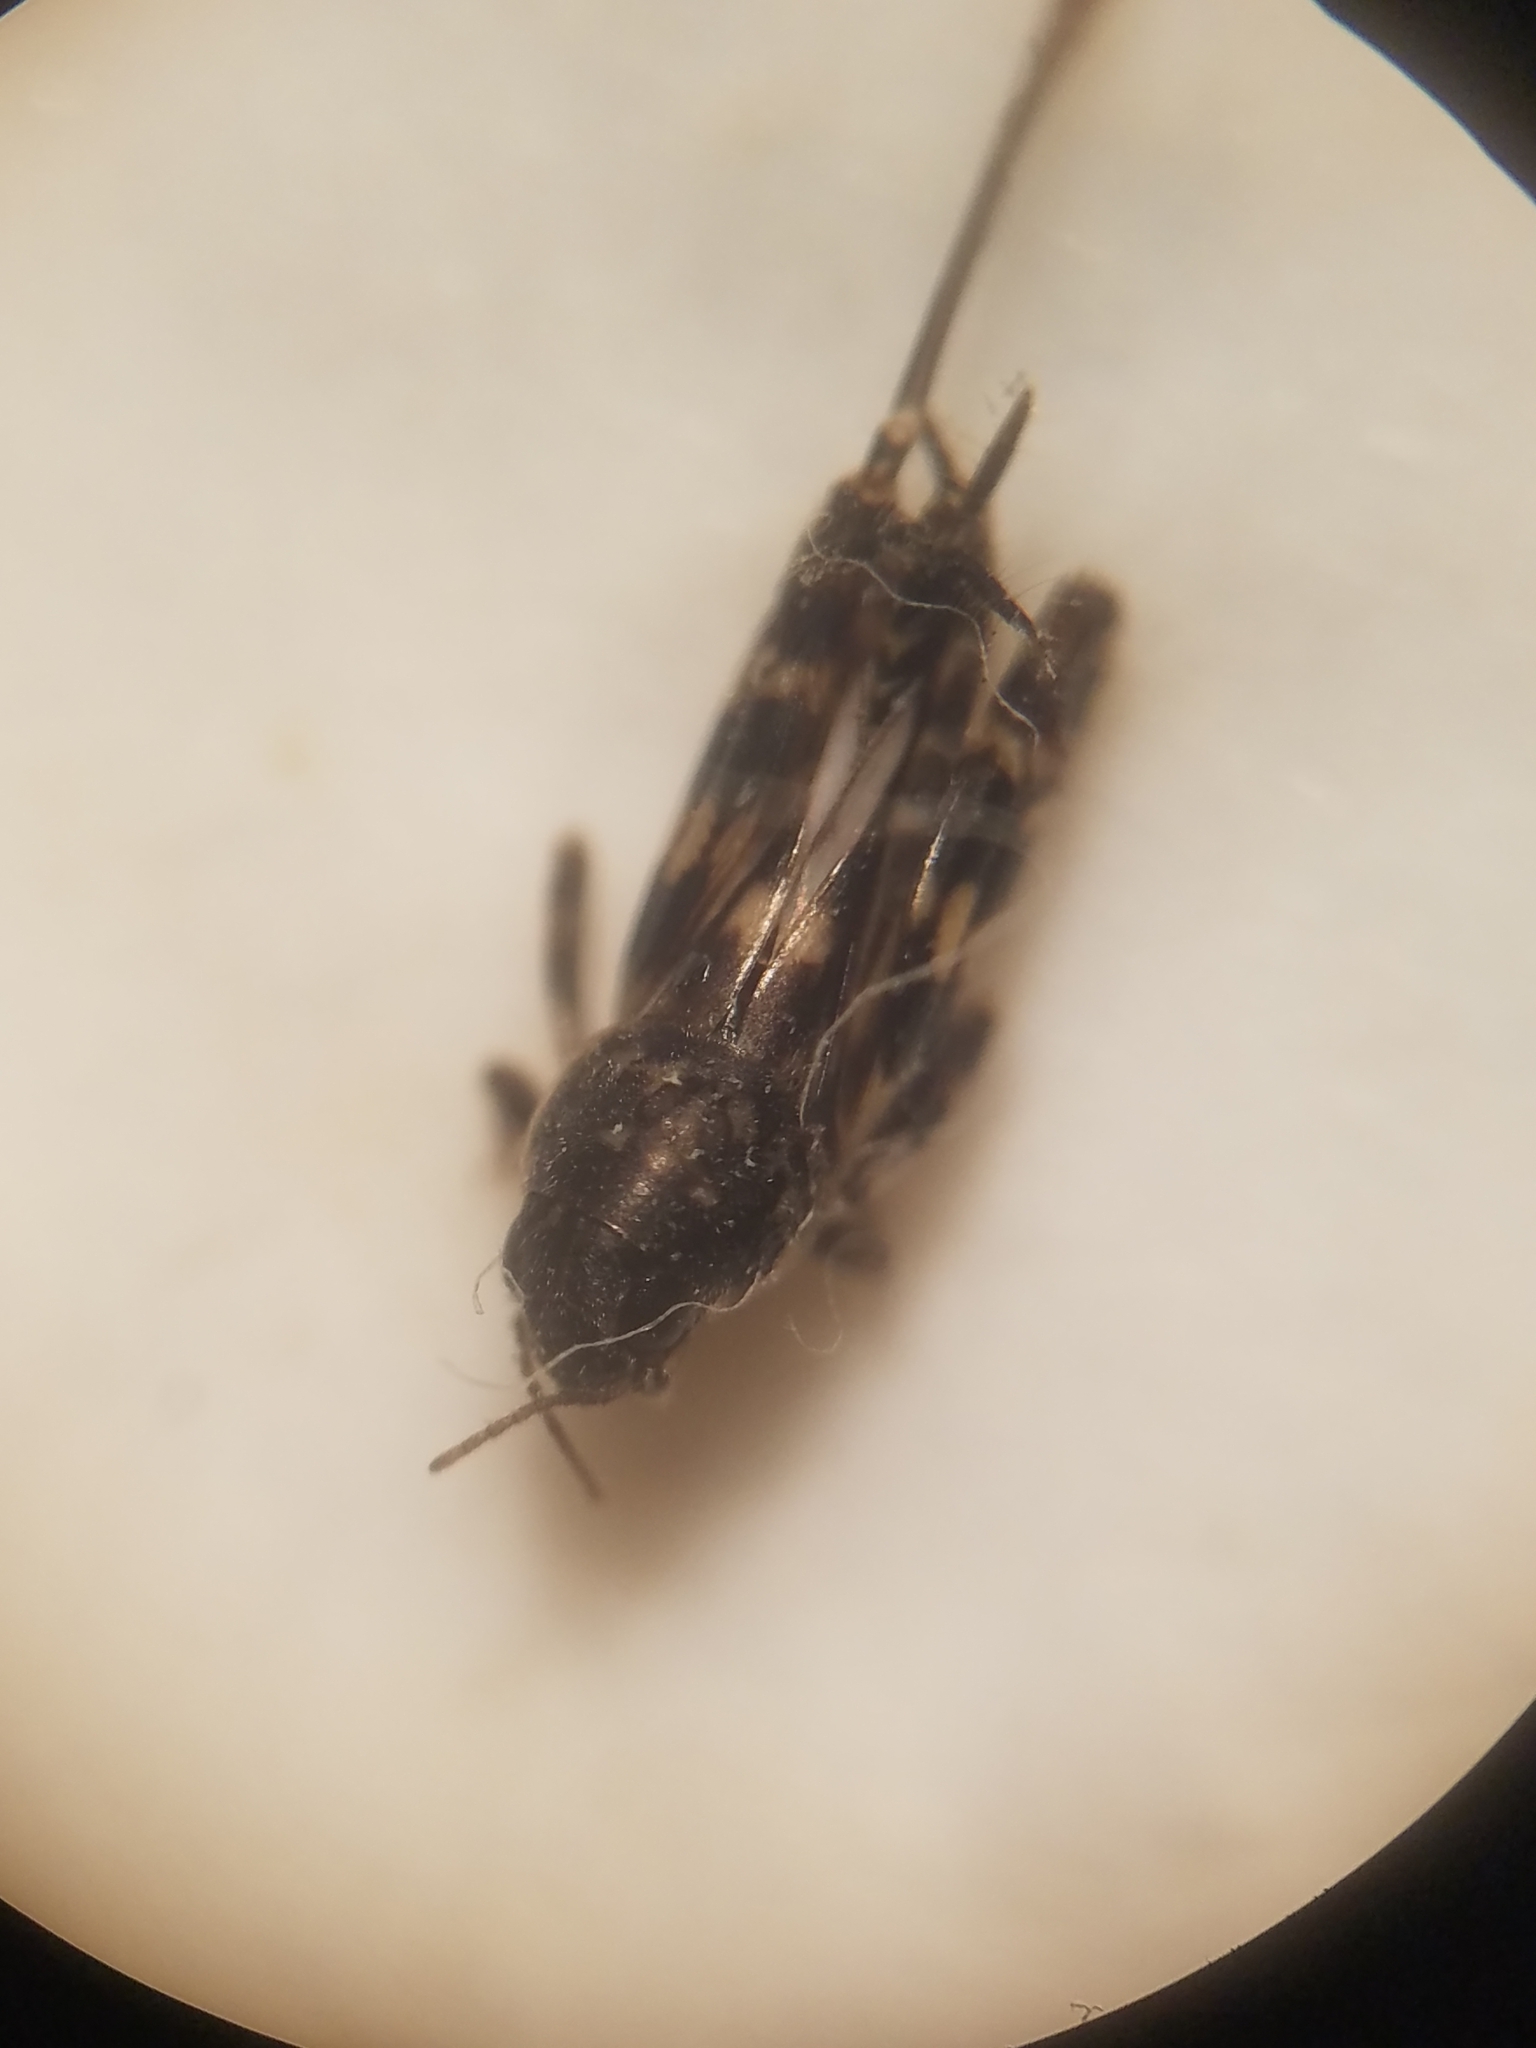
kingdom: Animalia
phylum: Arthropoda
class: Insecta
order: Orthoptera
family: Tridactylidae
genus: Ellipes
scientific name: Ellipes minuta
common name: Minute pygmy locust
